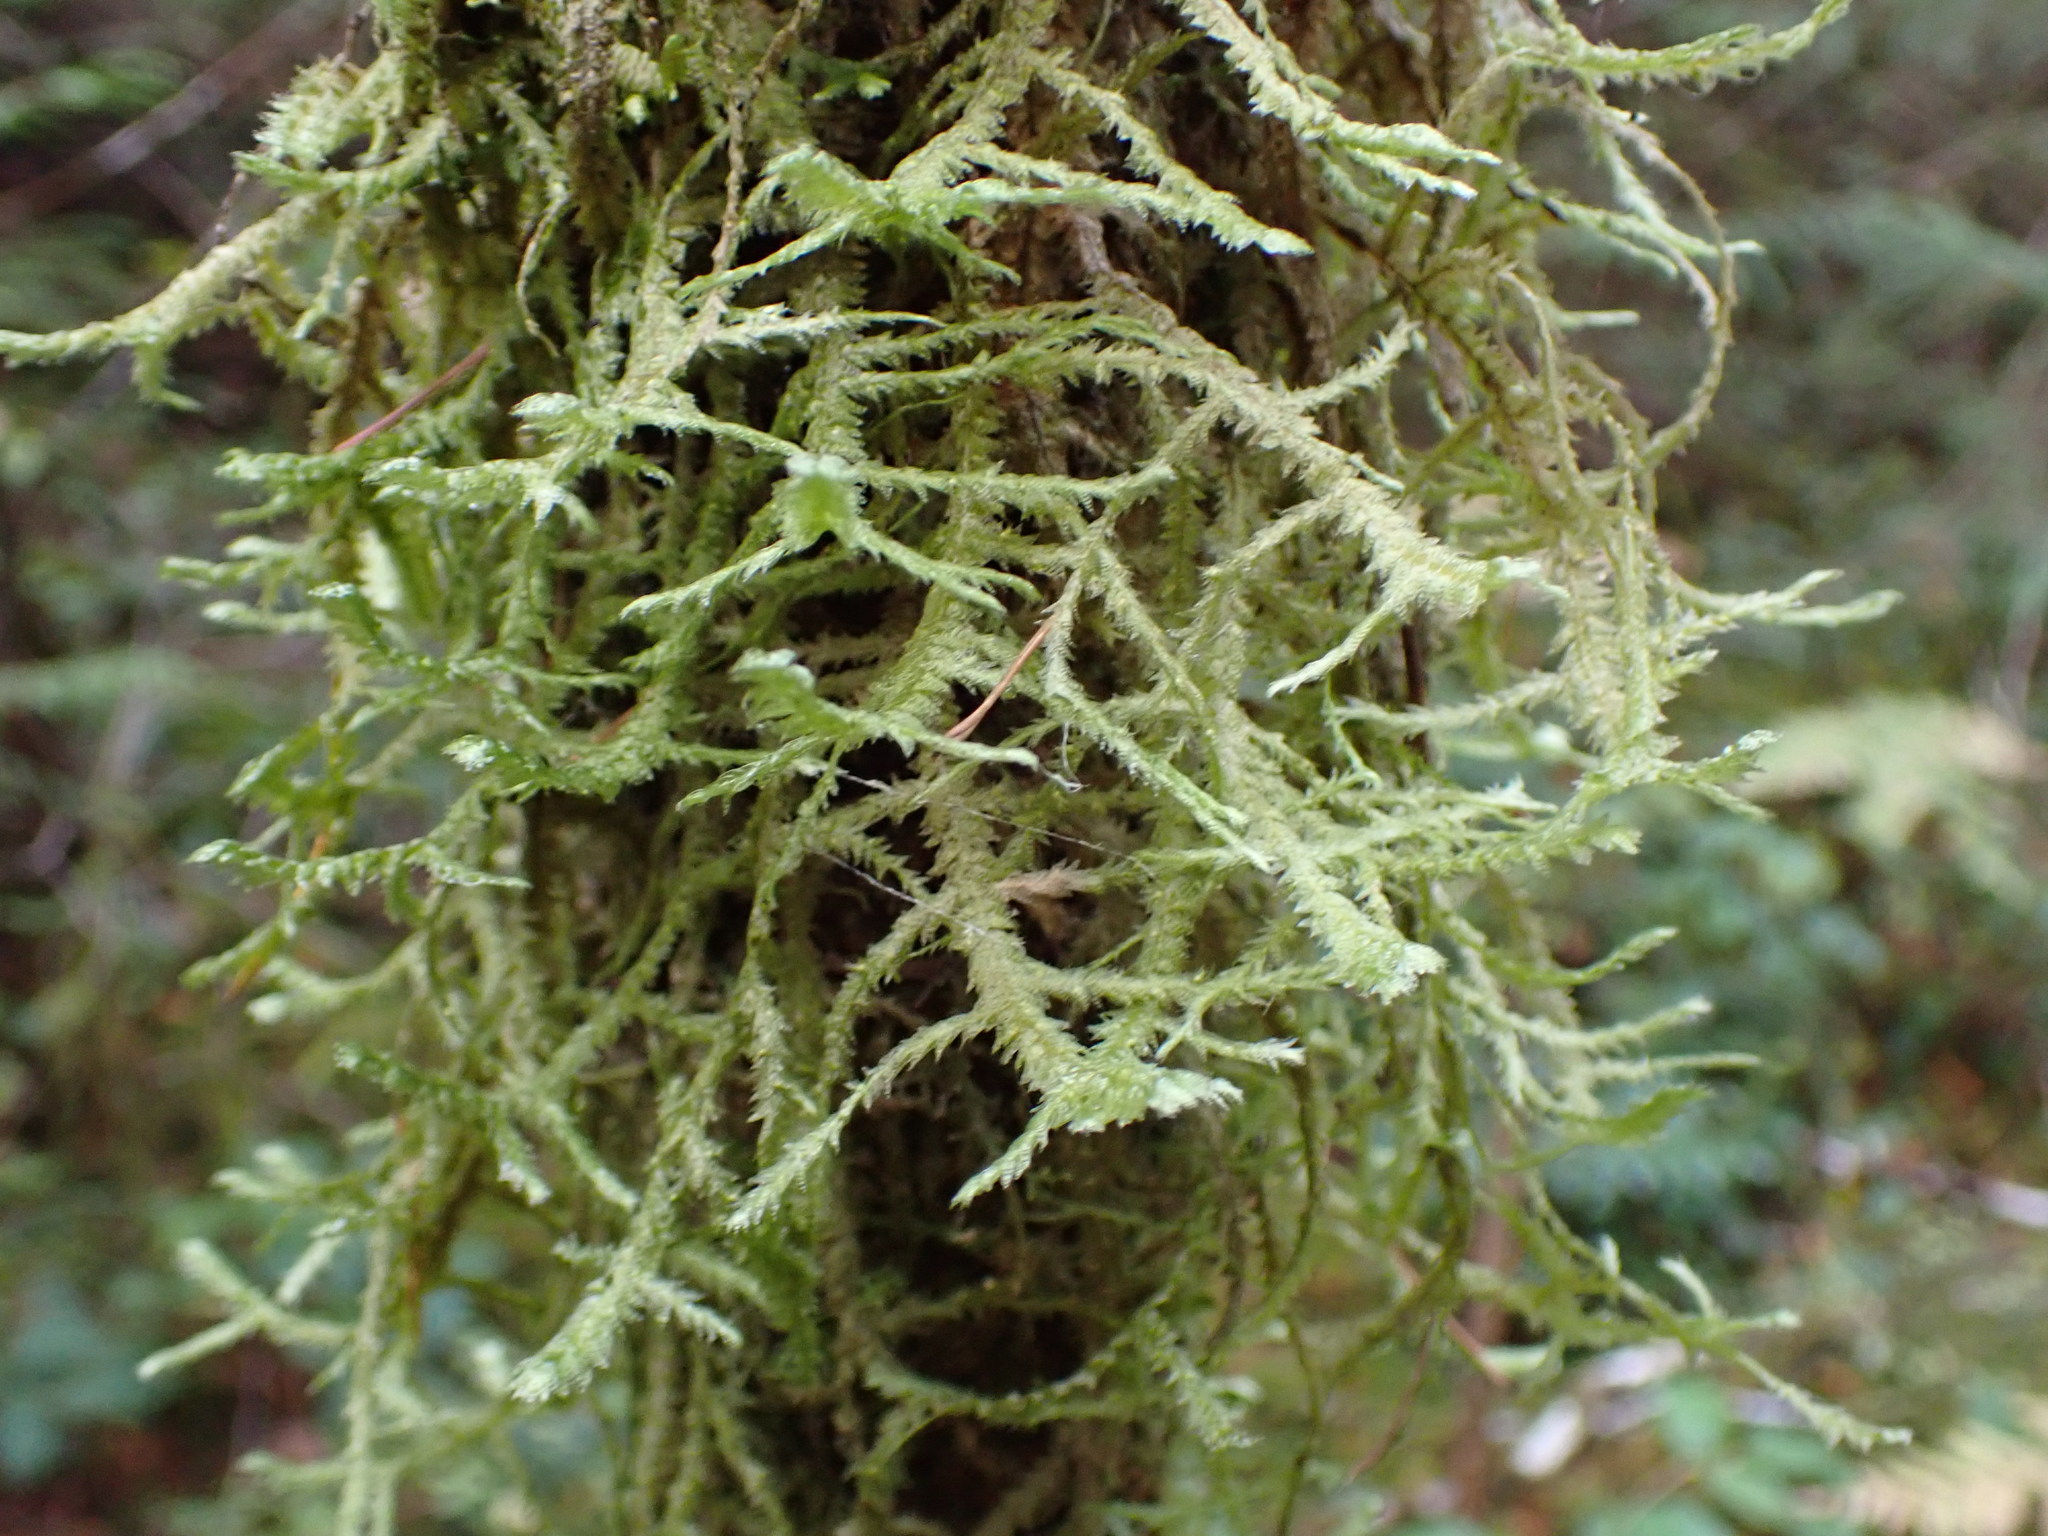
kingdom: Plantae
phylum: Bryophyta
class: Bryopsida
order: Hypnales
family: Neckeraceae
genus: Neckera
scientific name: Neckera douglasii
